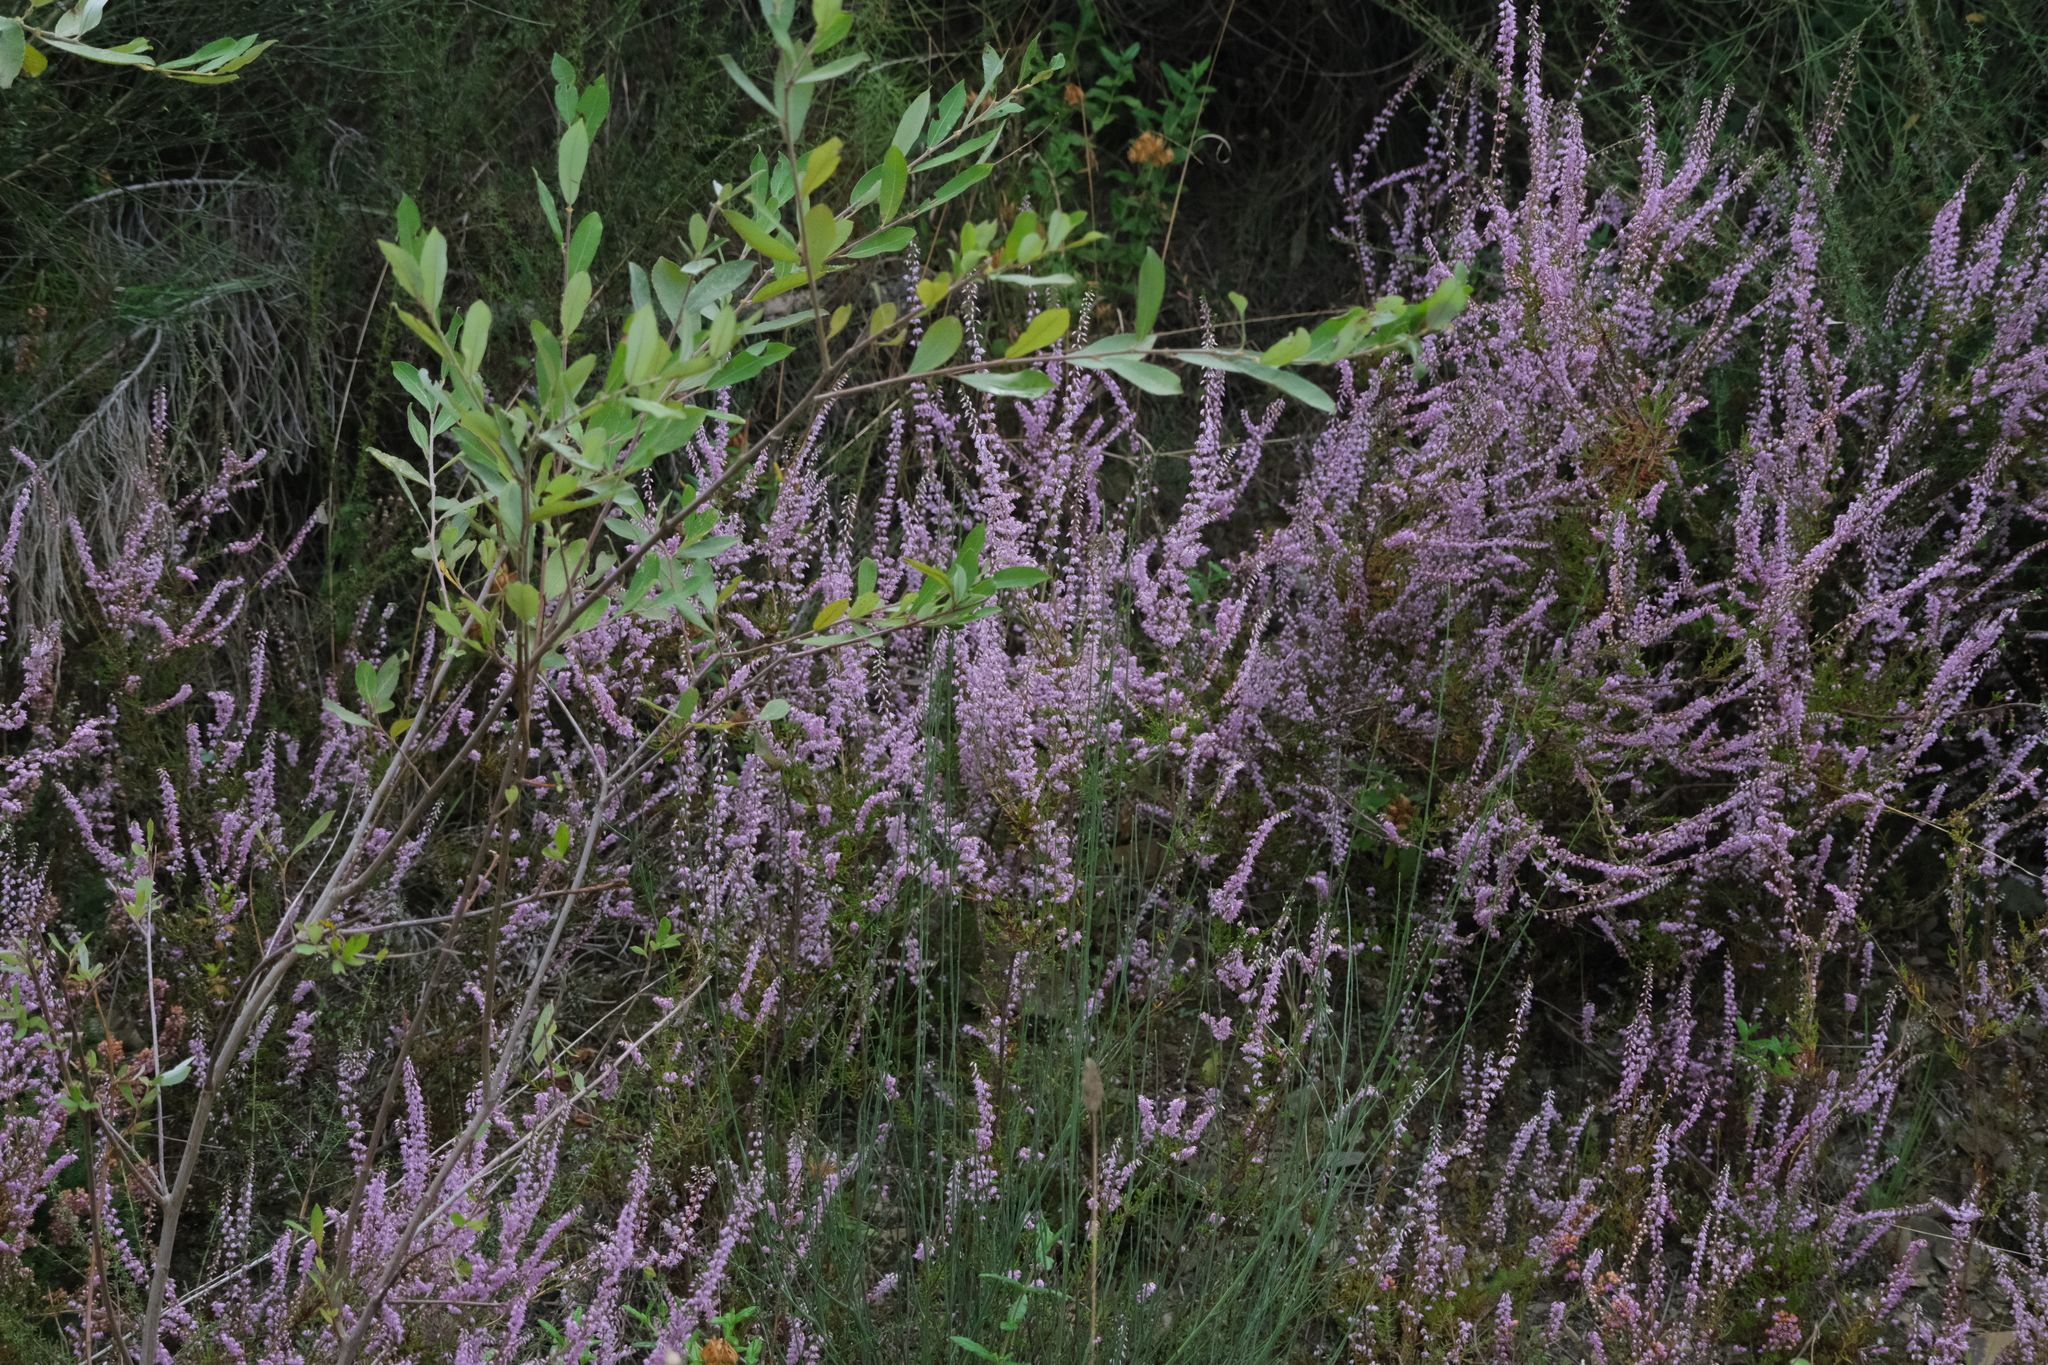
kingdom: Plantae
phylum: Tracheophyta
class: Magnoliopsida
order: Ericales
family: Ericaceae
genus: Calluna
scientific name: Calluna vulgaris
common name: Heather
